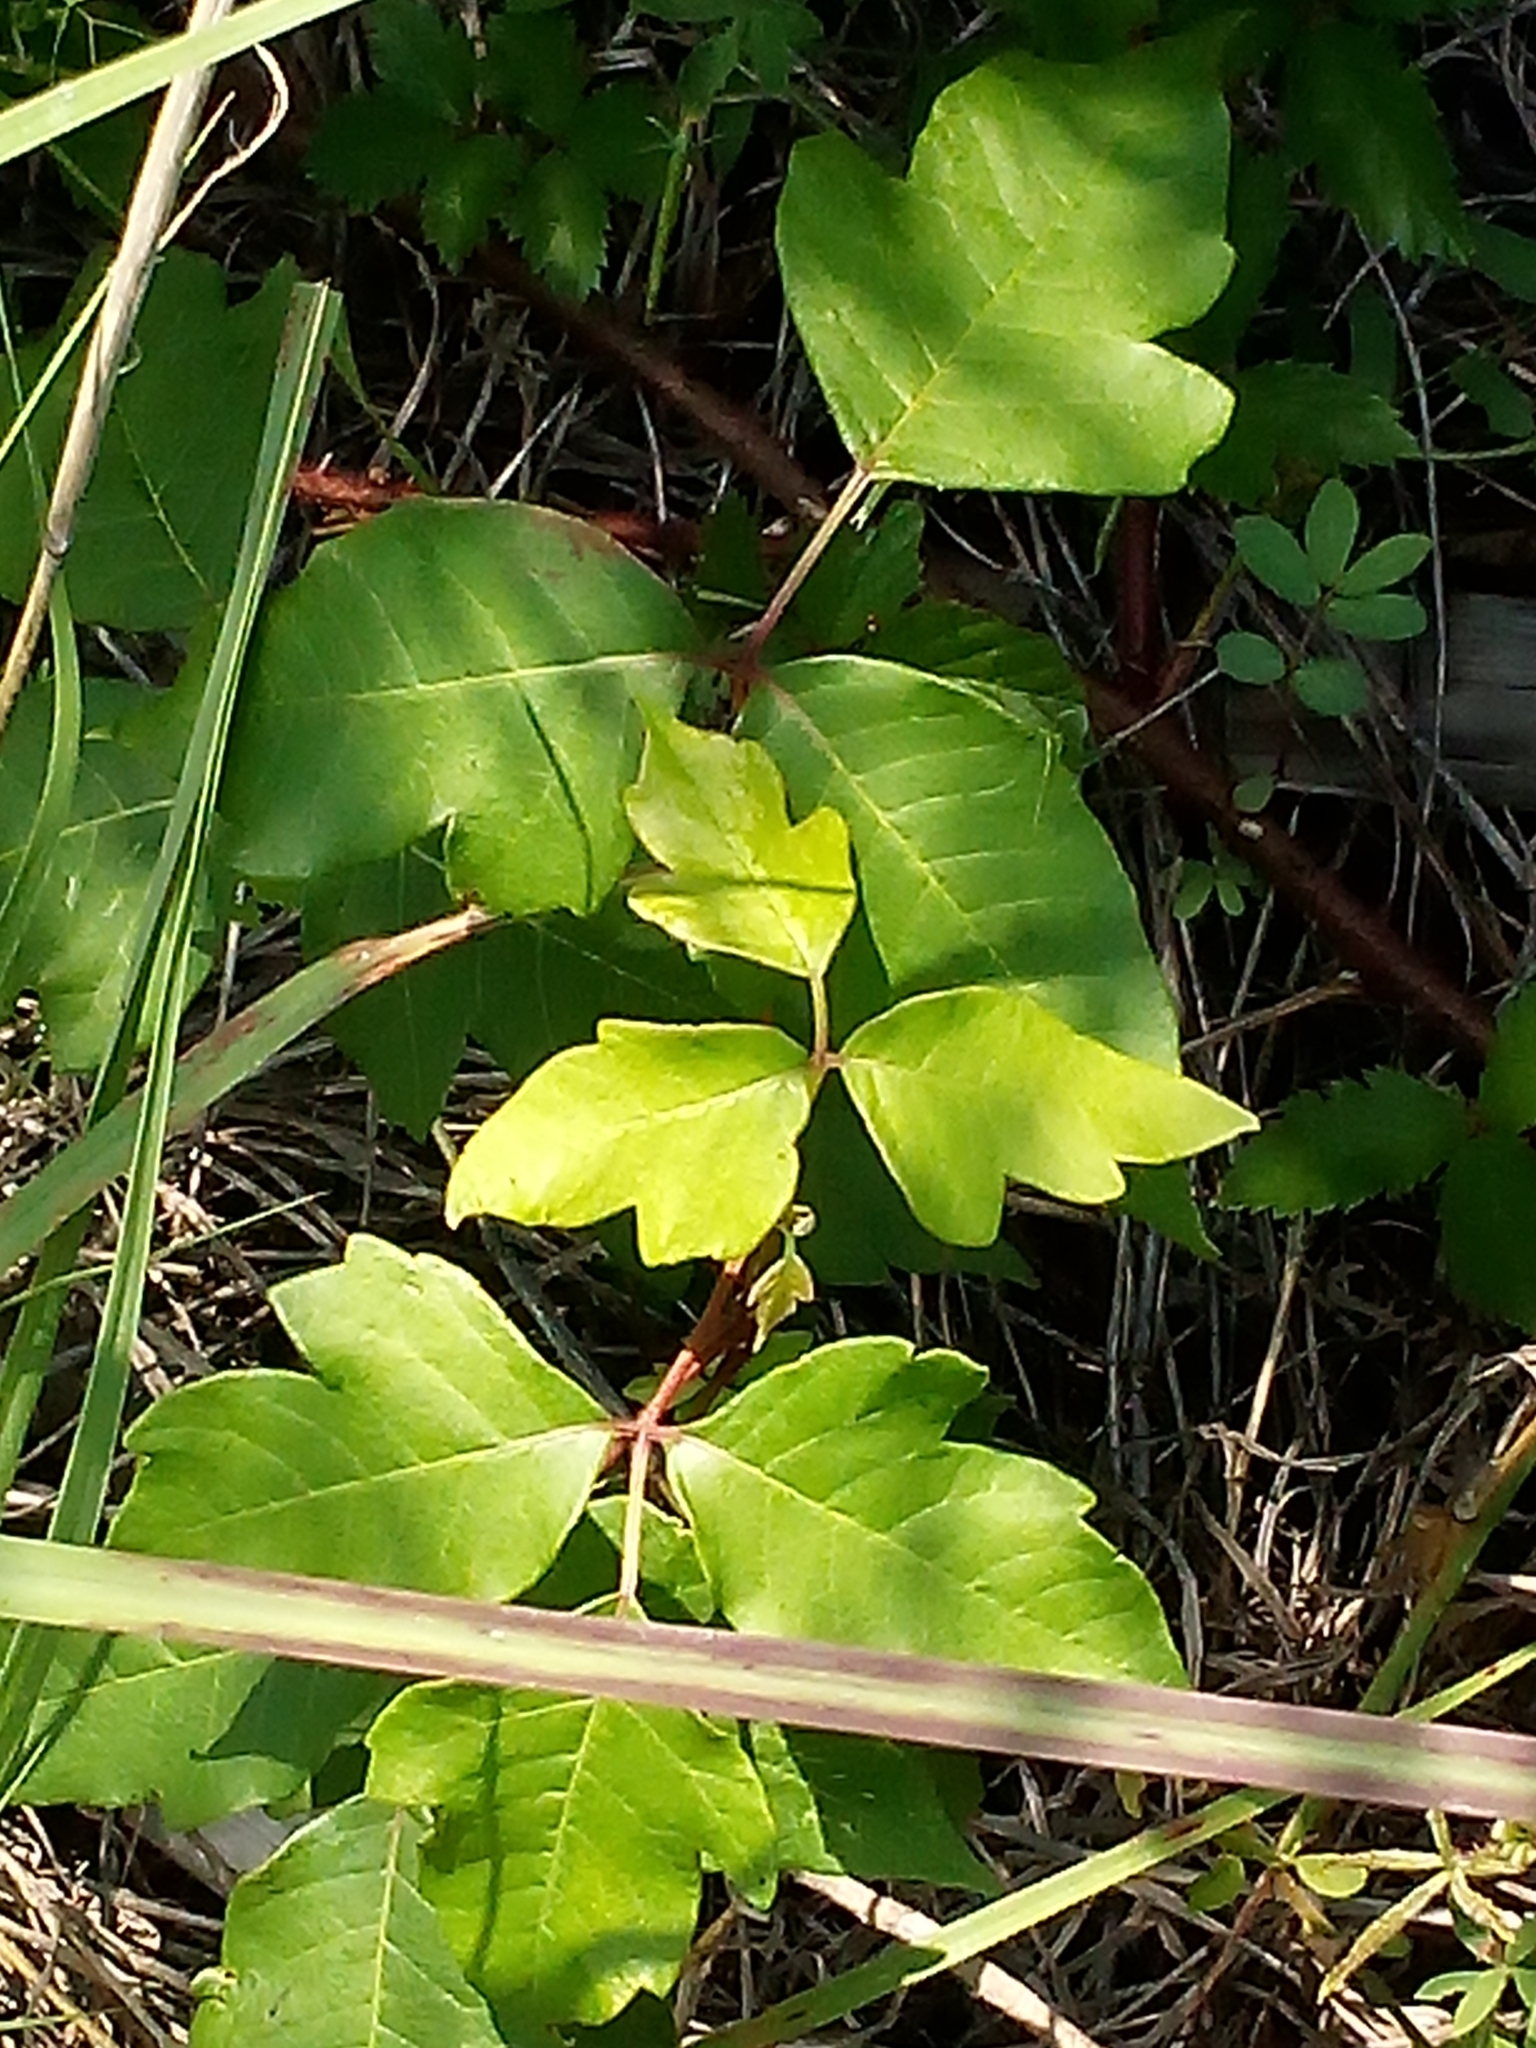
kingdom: Plantae
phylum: Tracheophyta
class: Magnoliopsida
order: Sapindales
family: Anacardiaceae
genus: Toxicodendron
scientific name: Toxicodendron radicans
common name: Poison ivy
